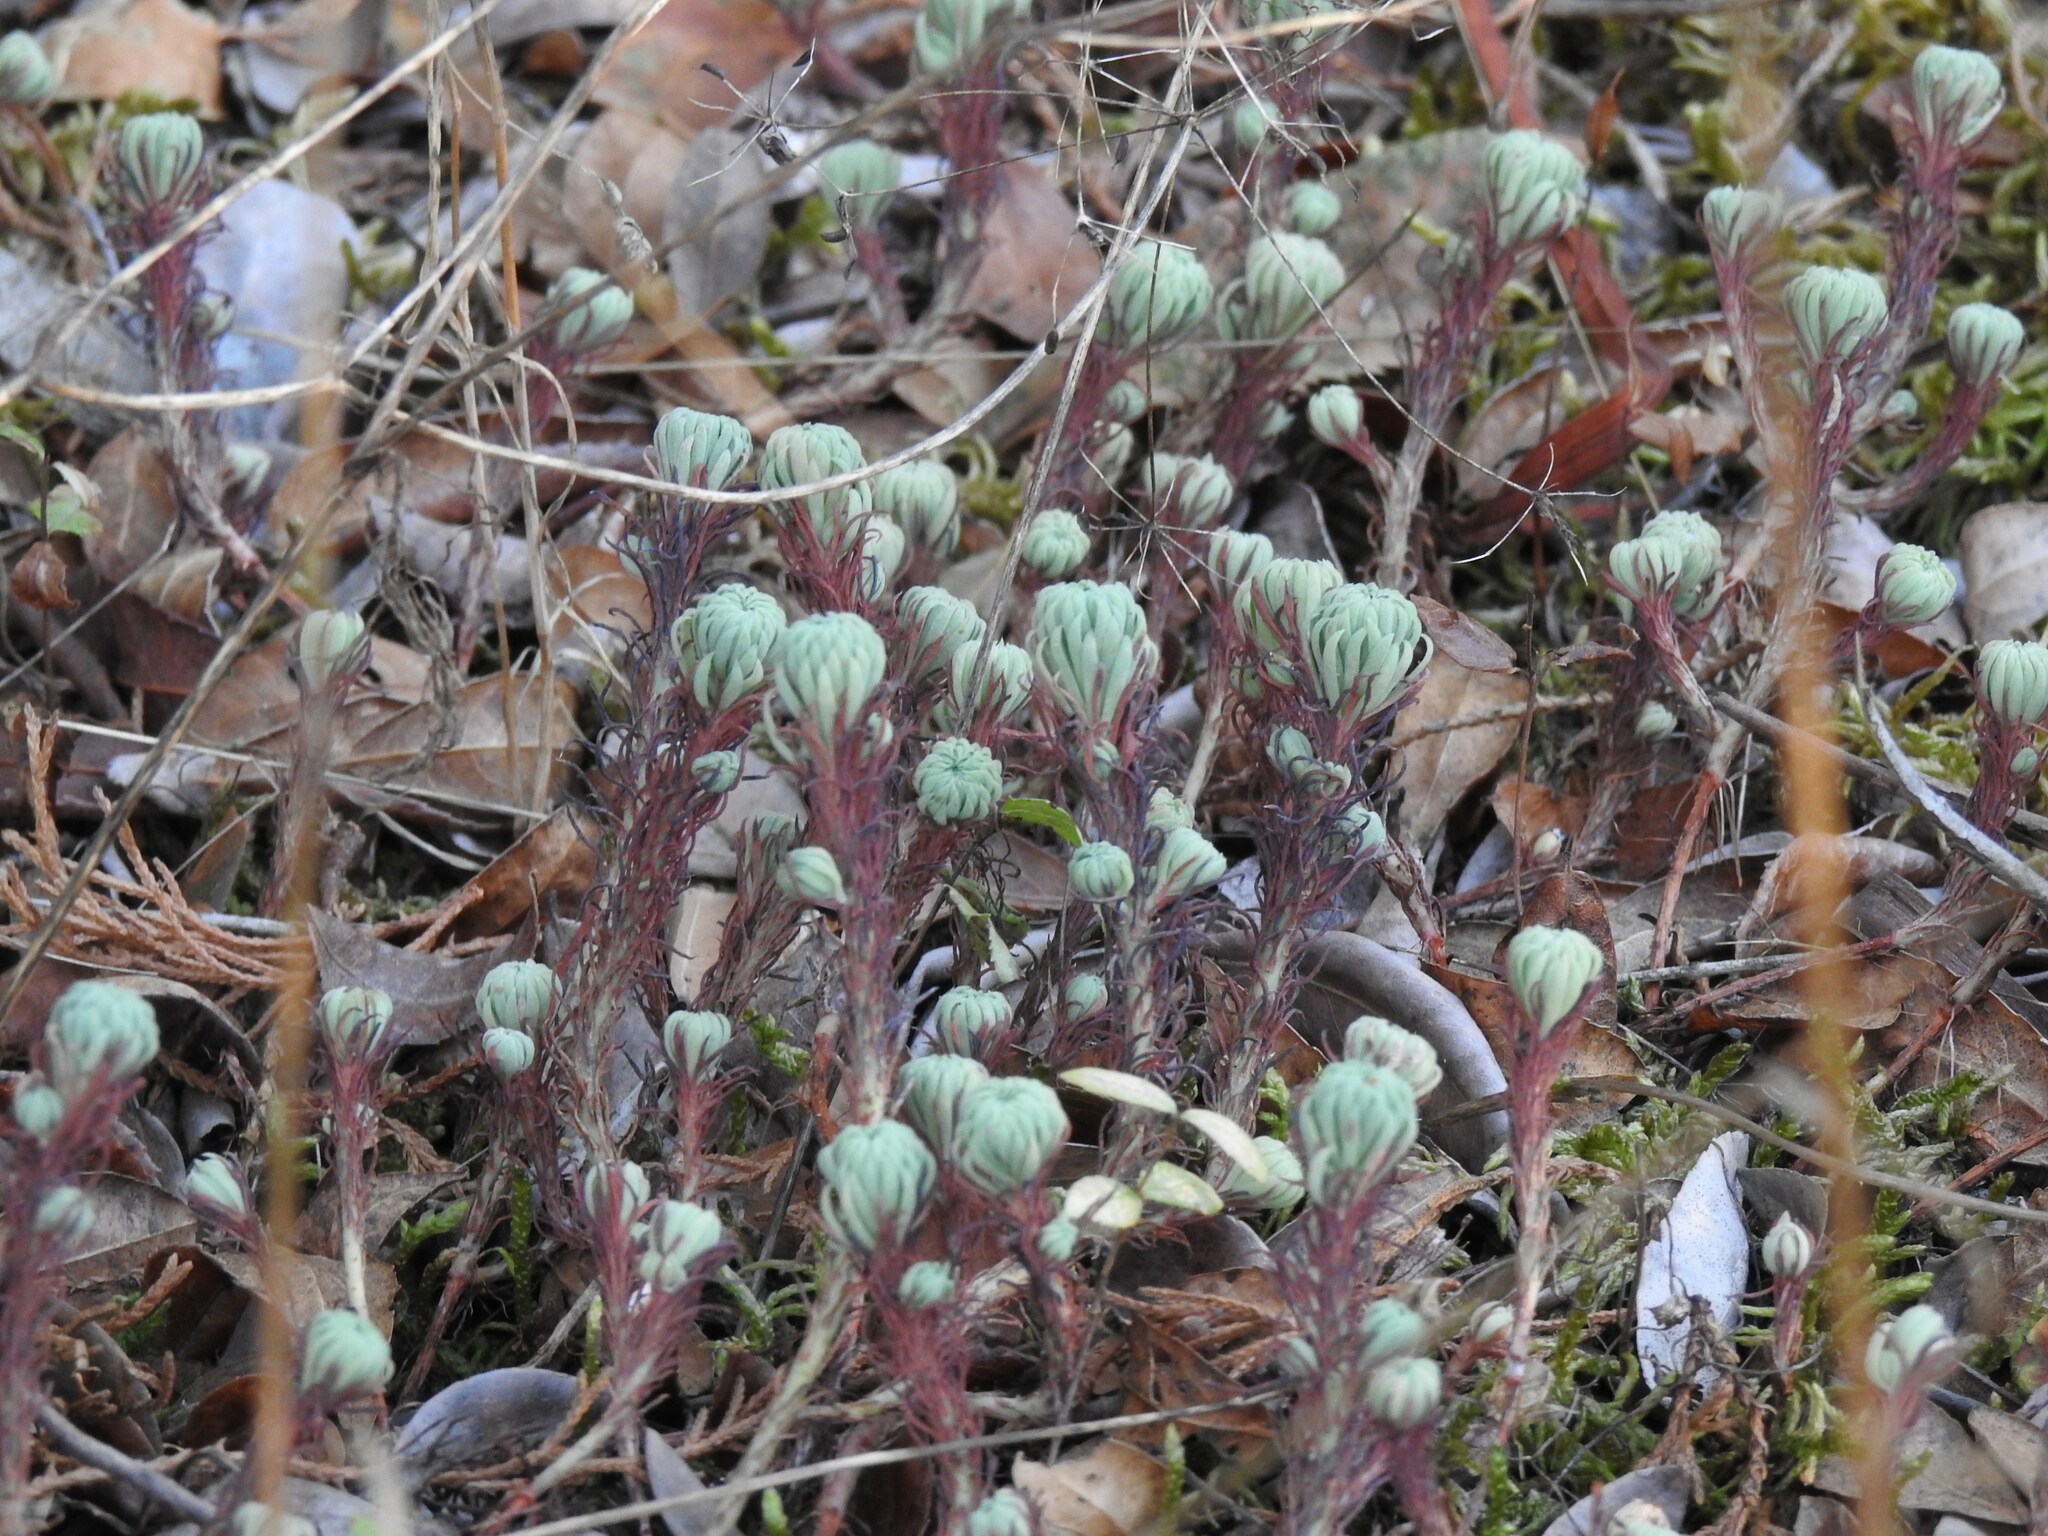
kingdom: Plantae
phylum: Tracheophyta
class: Magnoliopsida
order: Saxifragales
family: Crassulaceae
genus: Petrosedum
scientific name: Petrosedum forsterianum
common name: Forster's stonecrop
